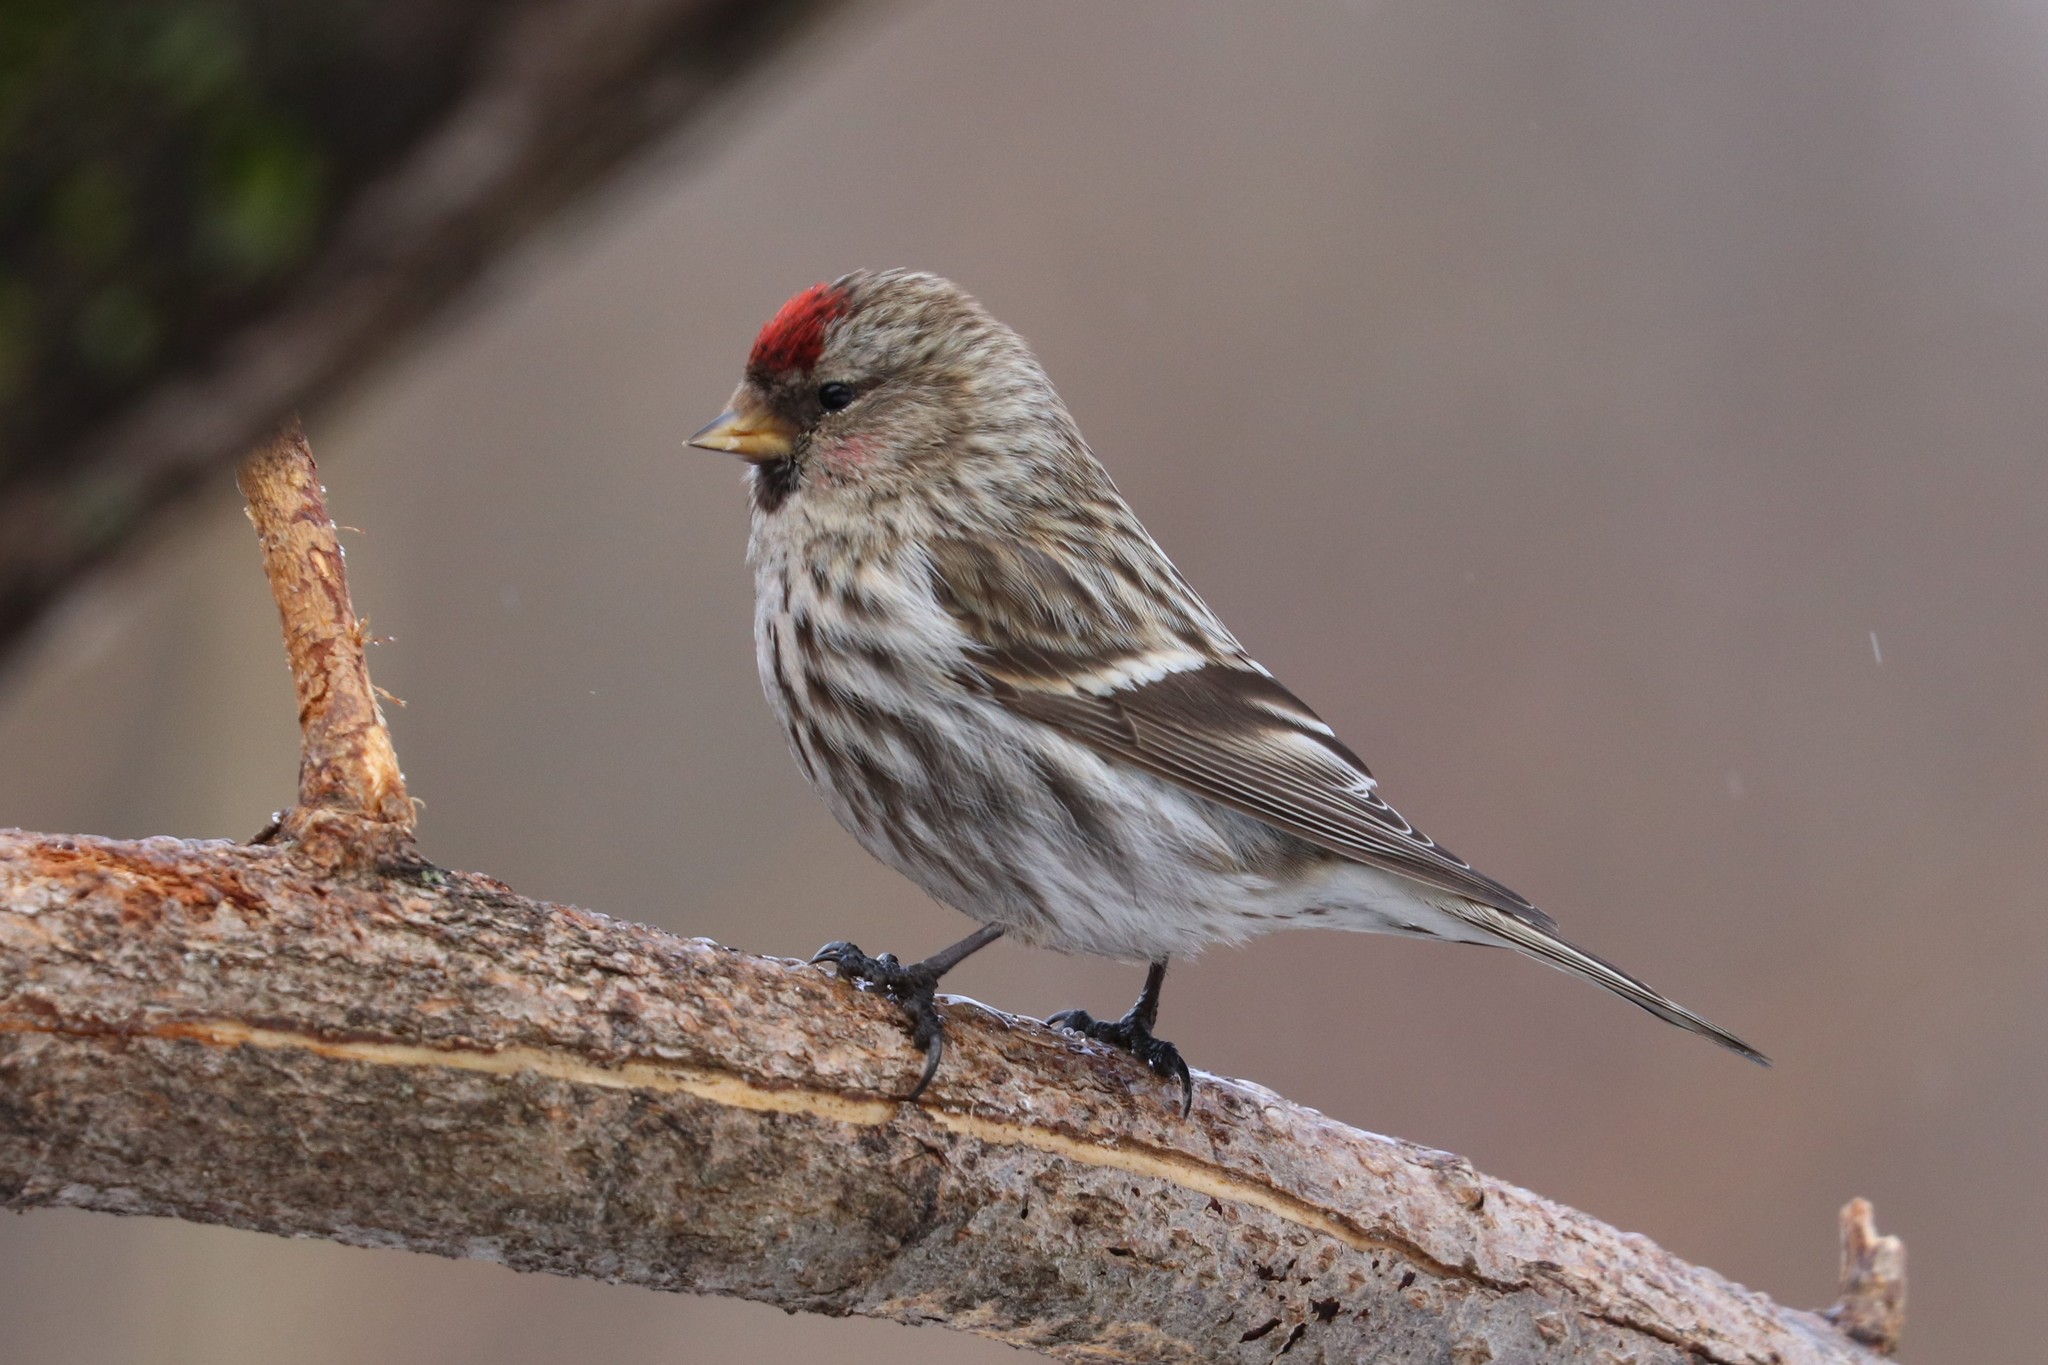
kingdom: Animalia
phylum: Chordata
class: Aves
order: Passeriformes
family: Fringillidae
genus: Acanthis
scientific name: Acanthis flammea
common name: Common redpoll
